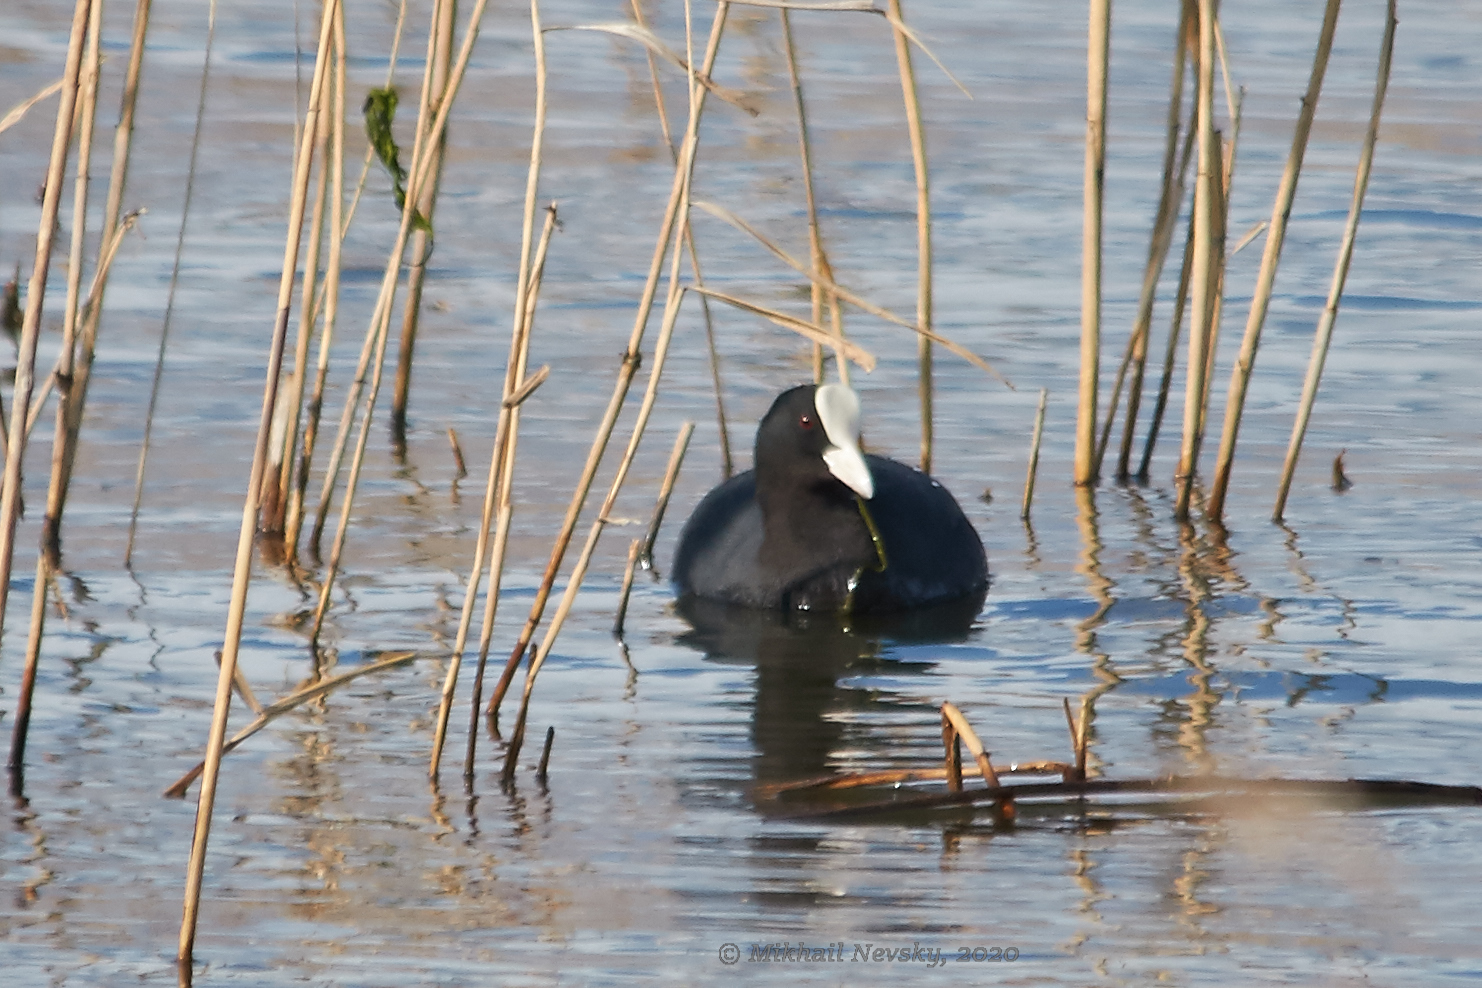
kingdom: Animalia
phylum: Chordata
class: Aves
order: Gruiformes
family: Rallidae
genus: Fulica
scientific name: Fulica atra
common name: Eurasian coot
